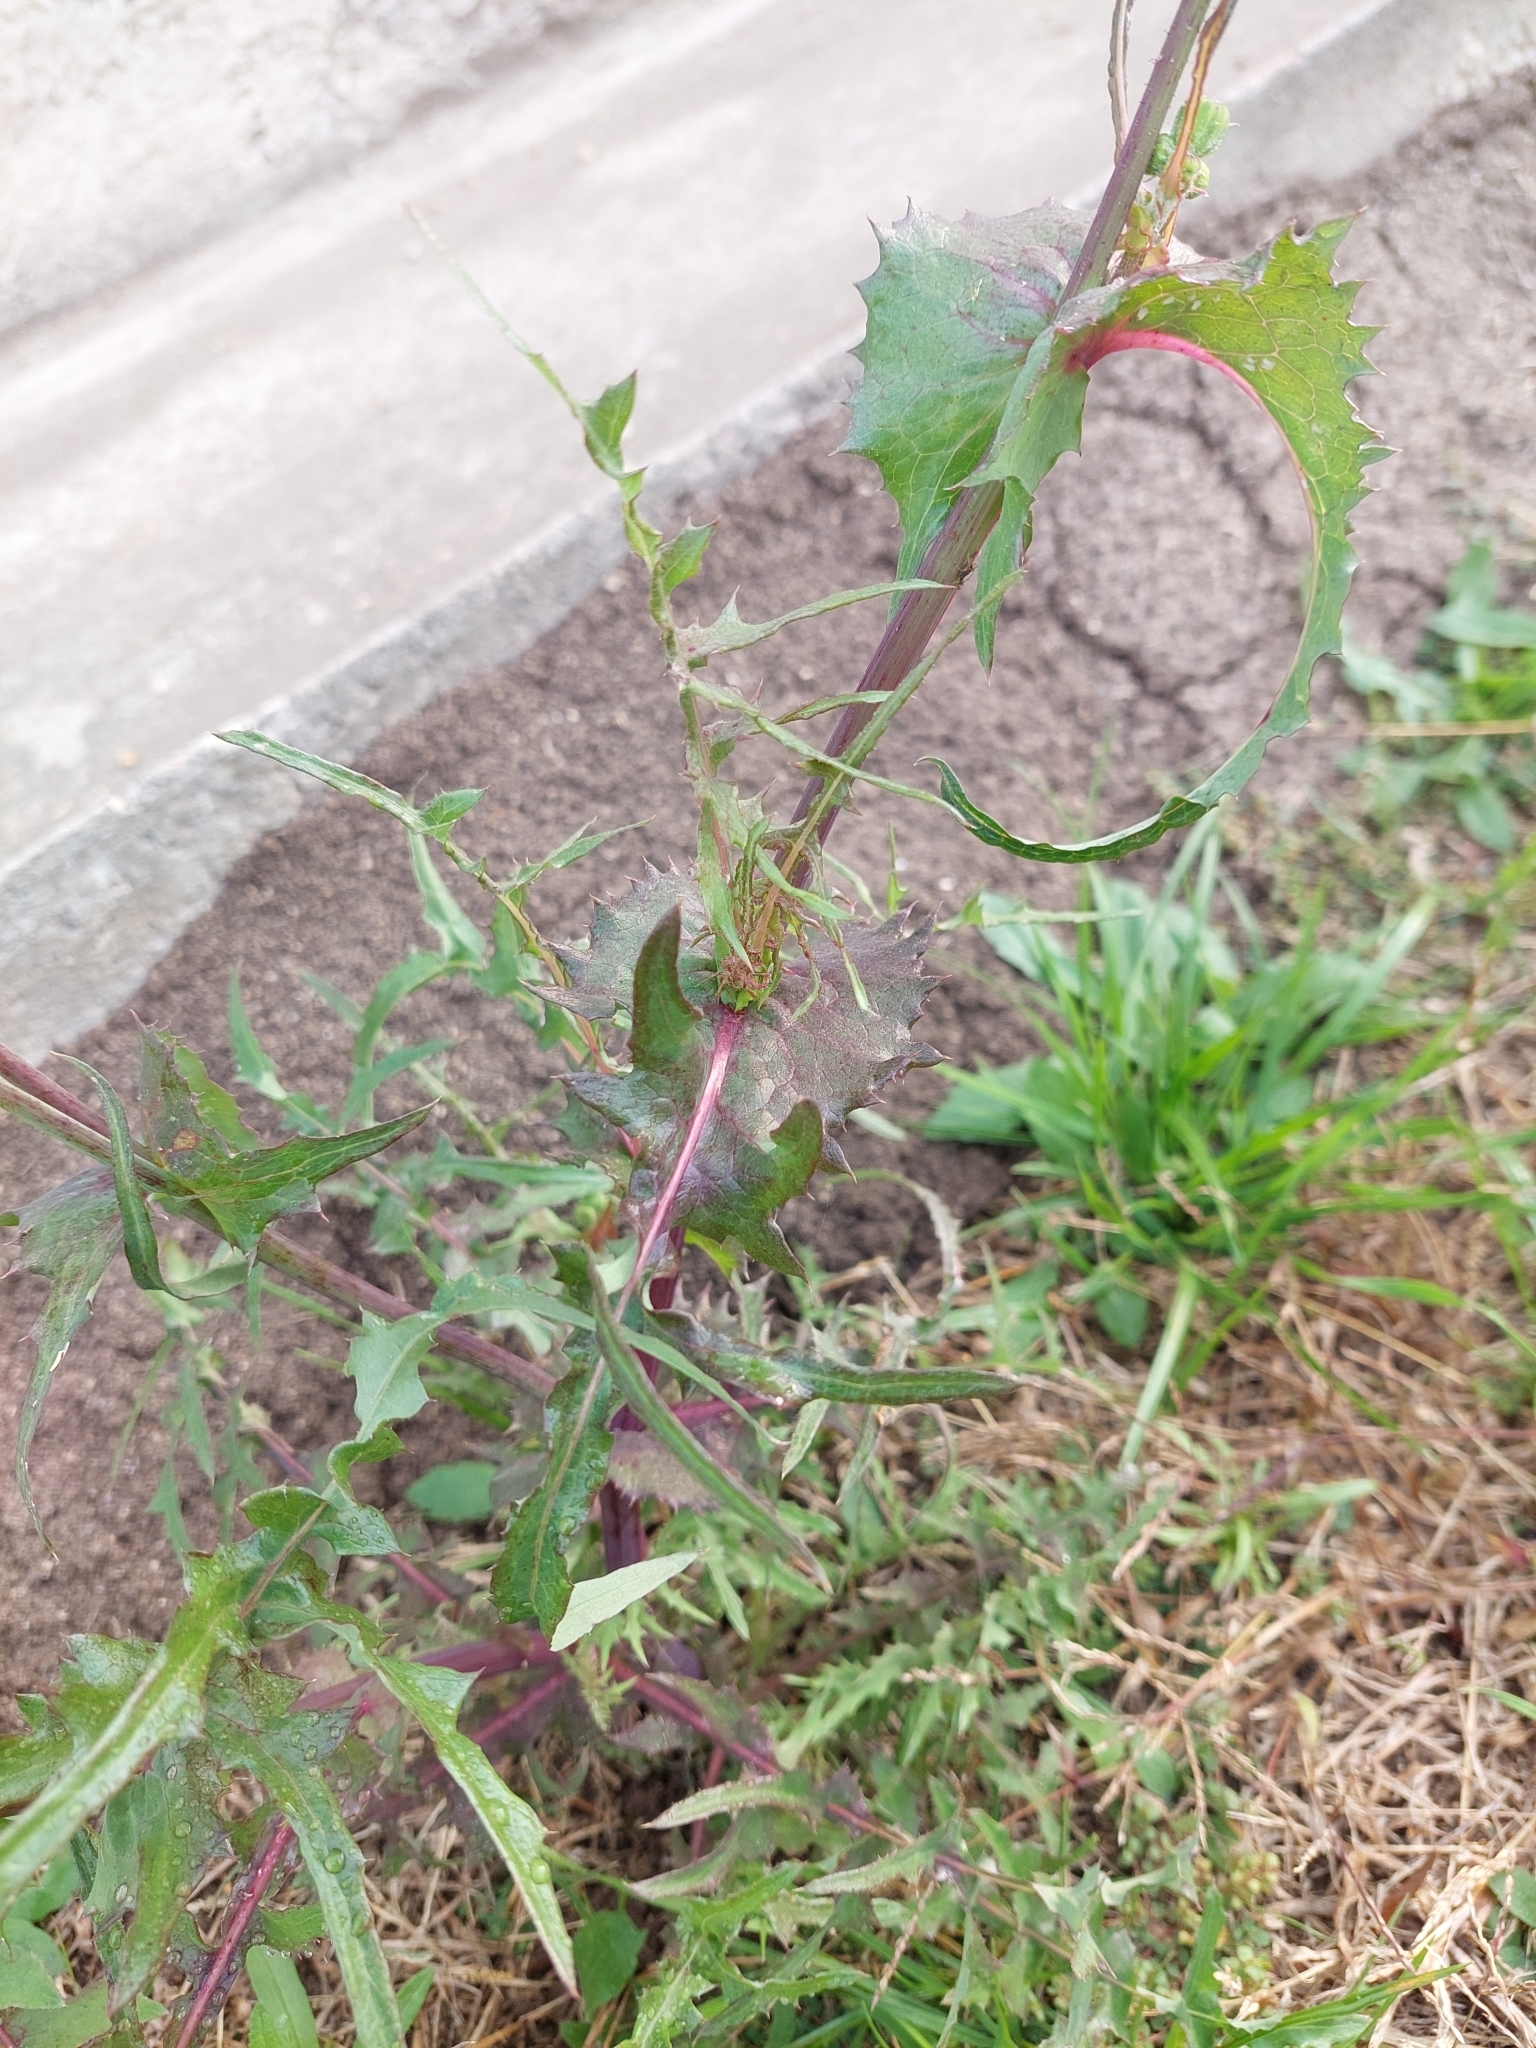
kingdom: Plantae
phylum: Tracheophyta
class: Magnoliopsida
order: Asterales
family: Asteraceae
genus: Sonchus
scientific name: Sonchus oleraceus
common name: Common sowthistle
